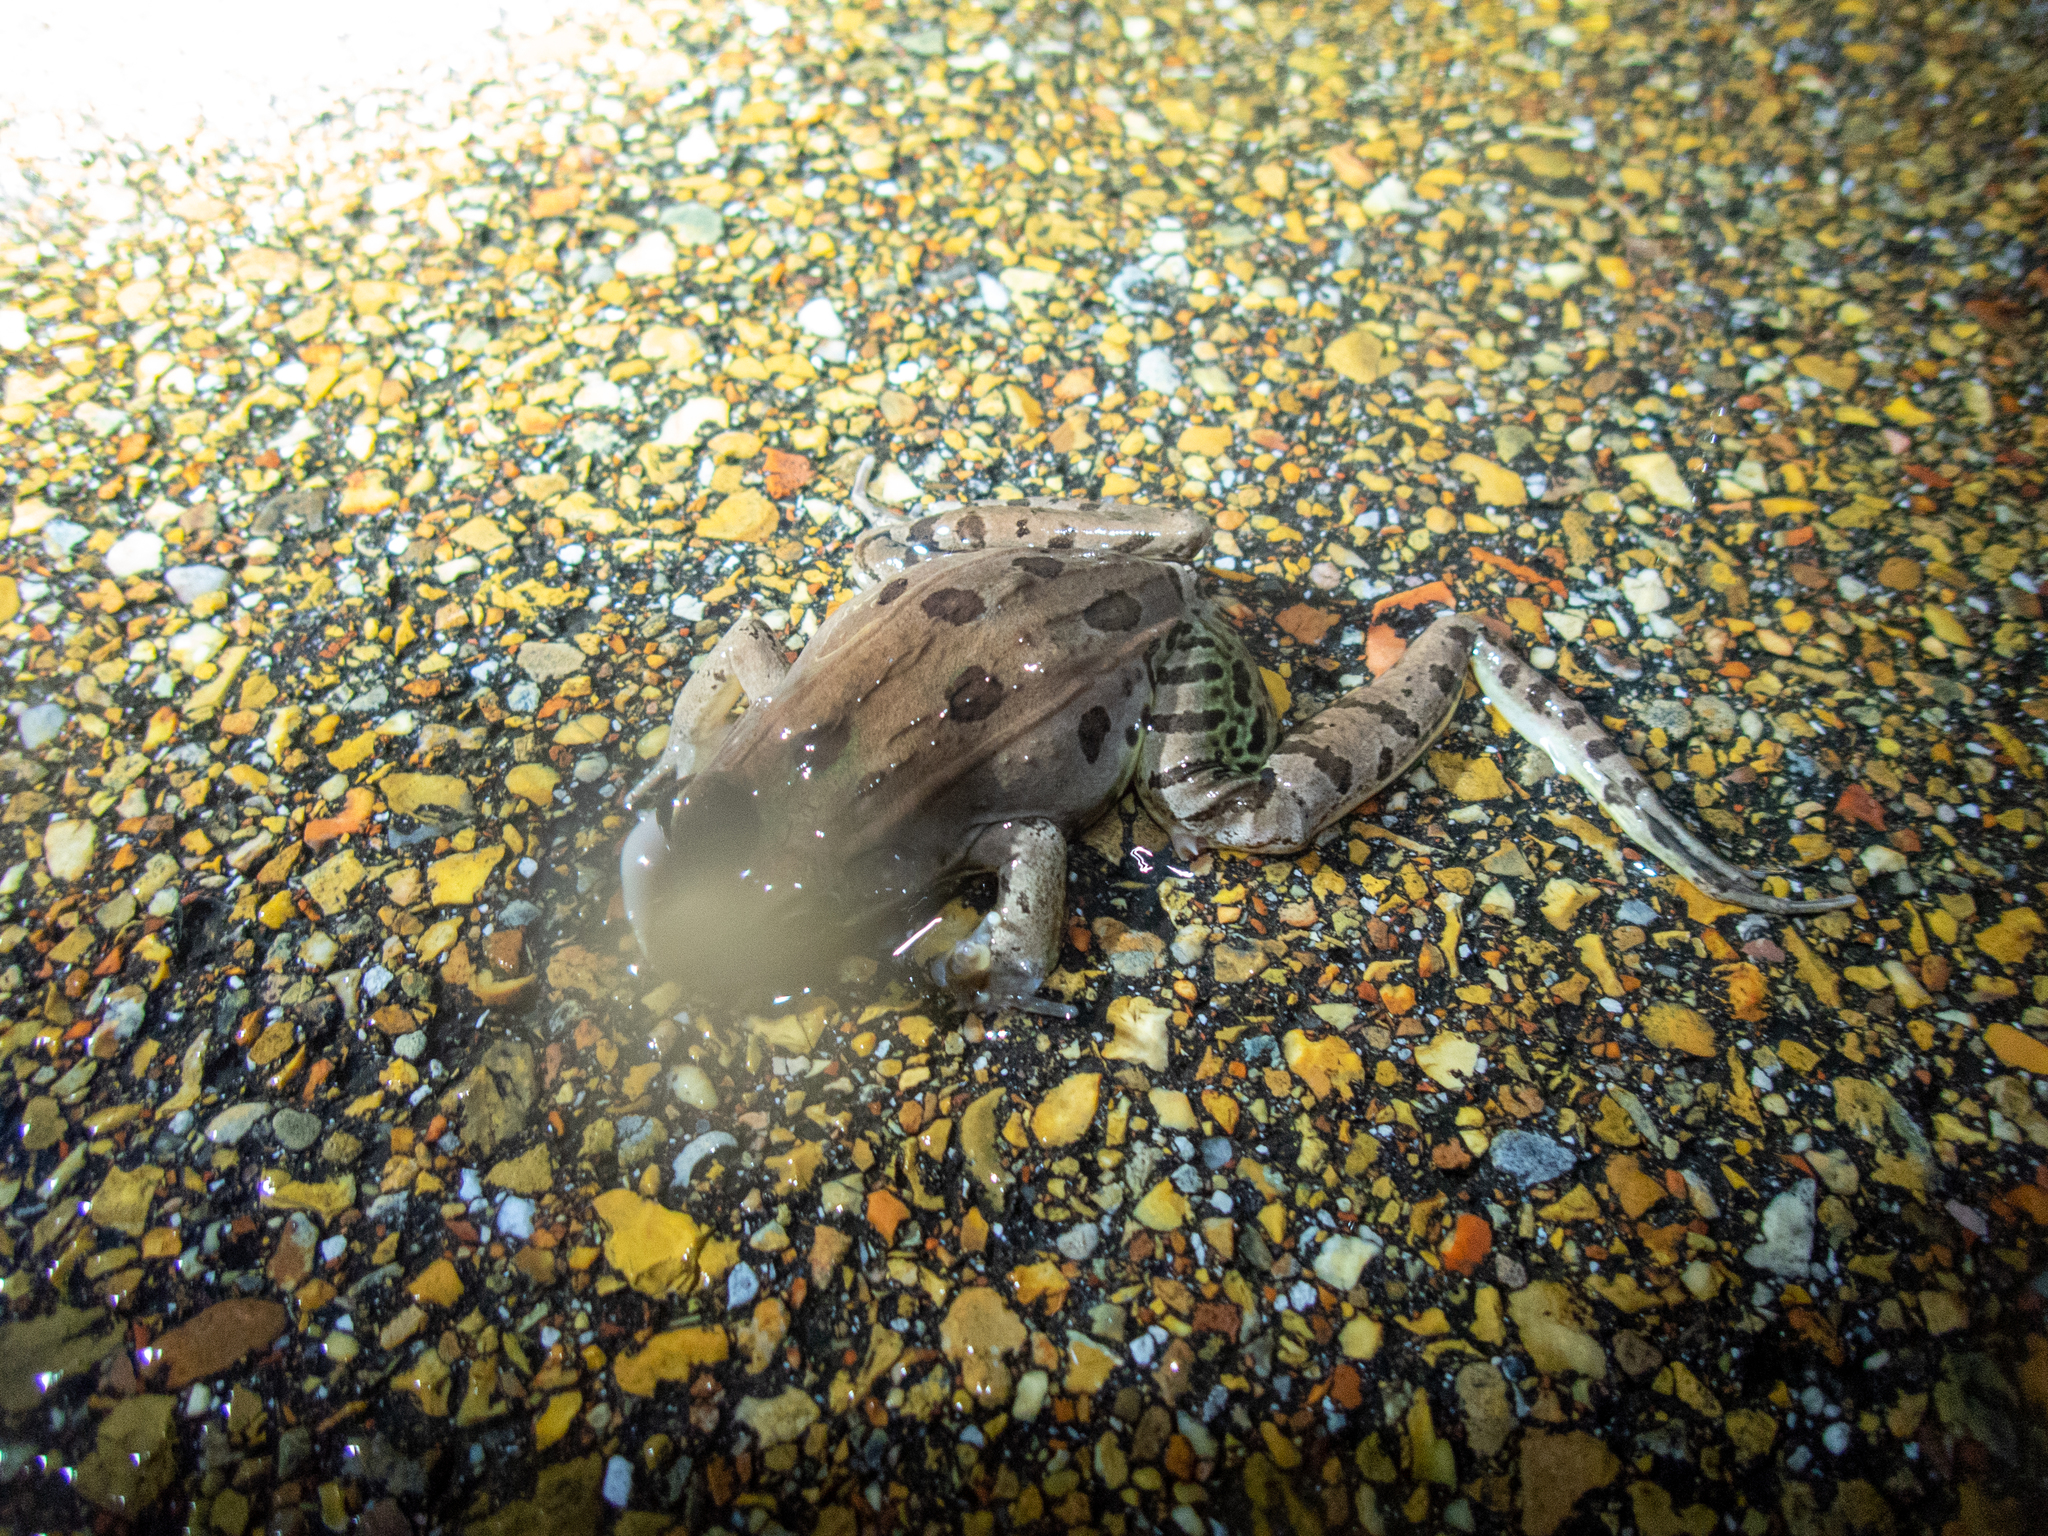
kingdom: Animalia
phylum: Chordata
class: Amphibia
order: Anura
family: Ranidae
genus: Lithobates
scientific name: Lithobates sphenocephalus
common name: Southern leopard frog
